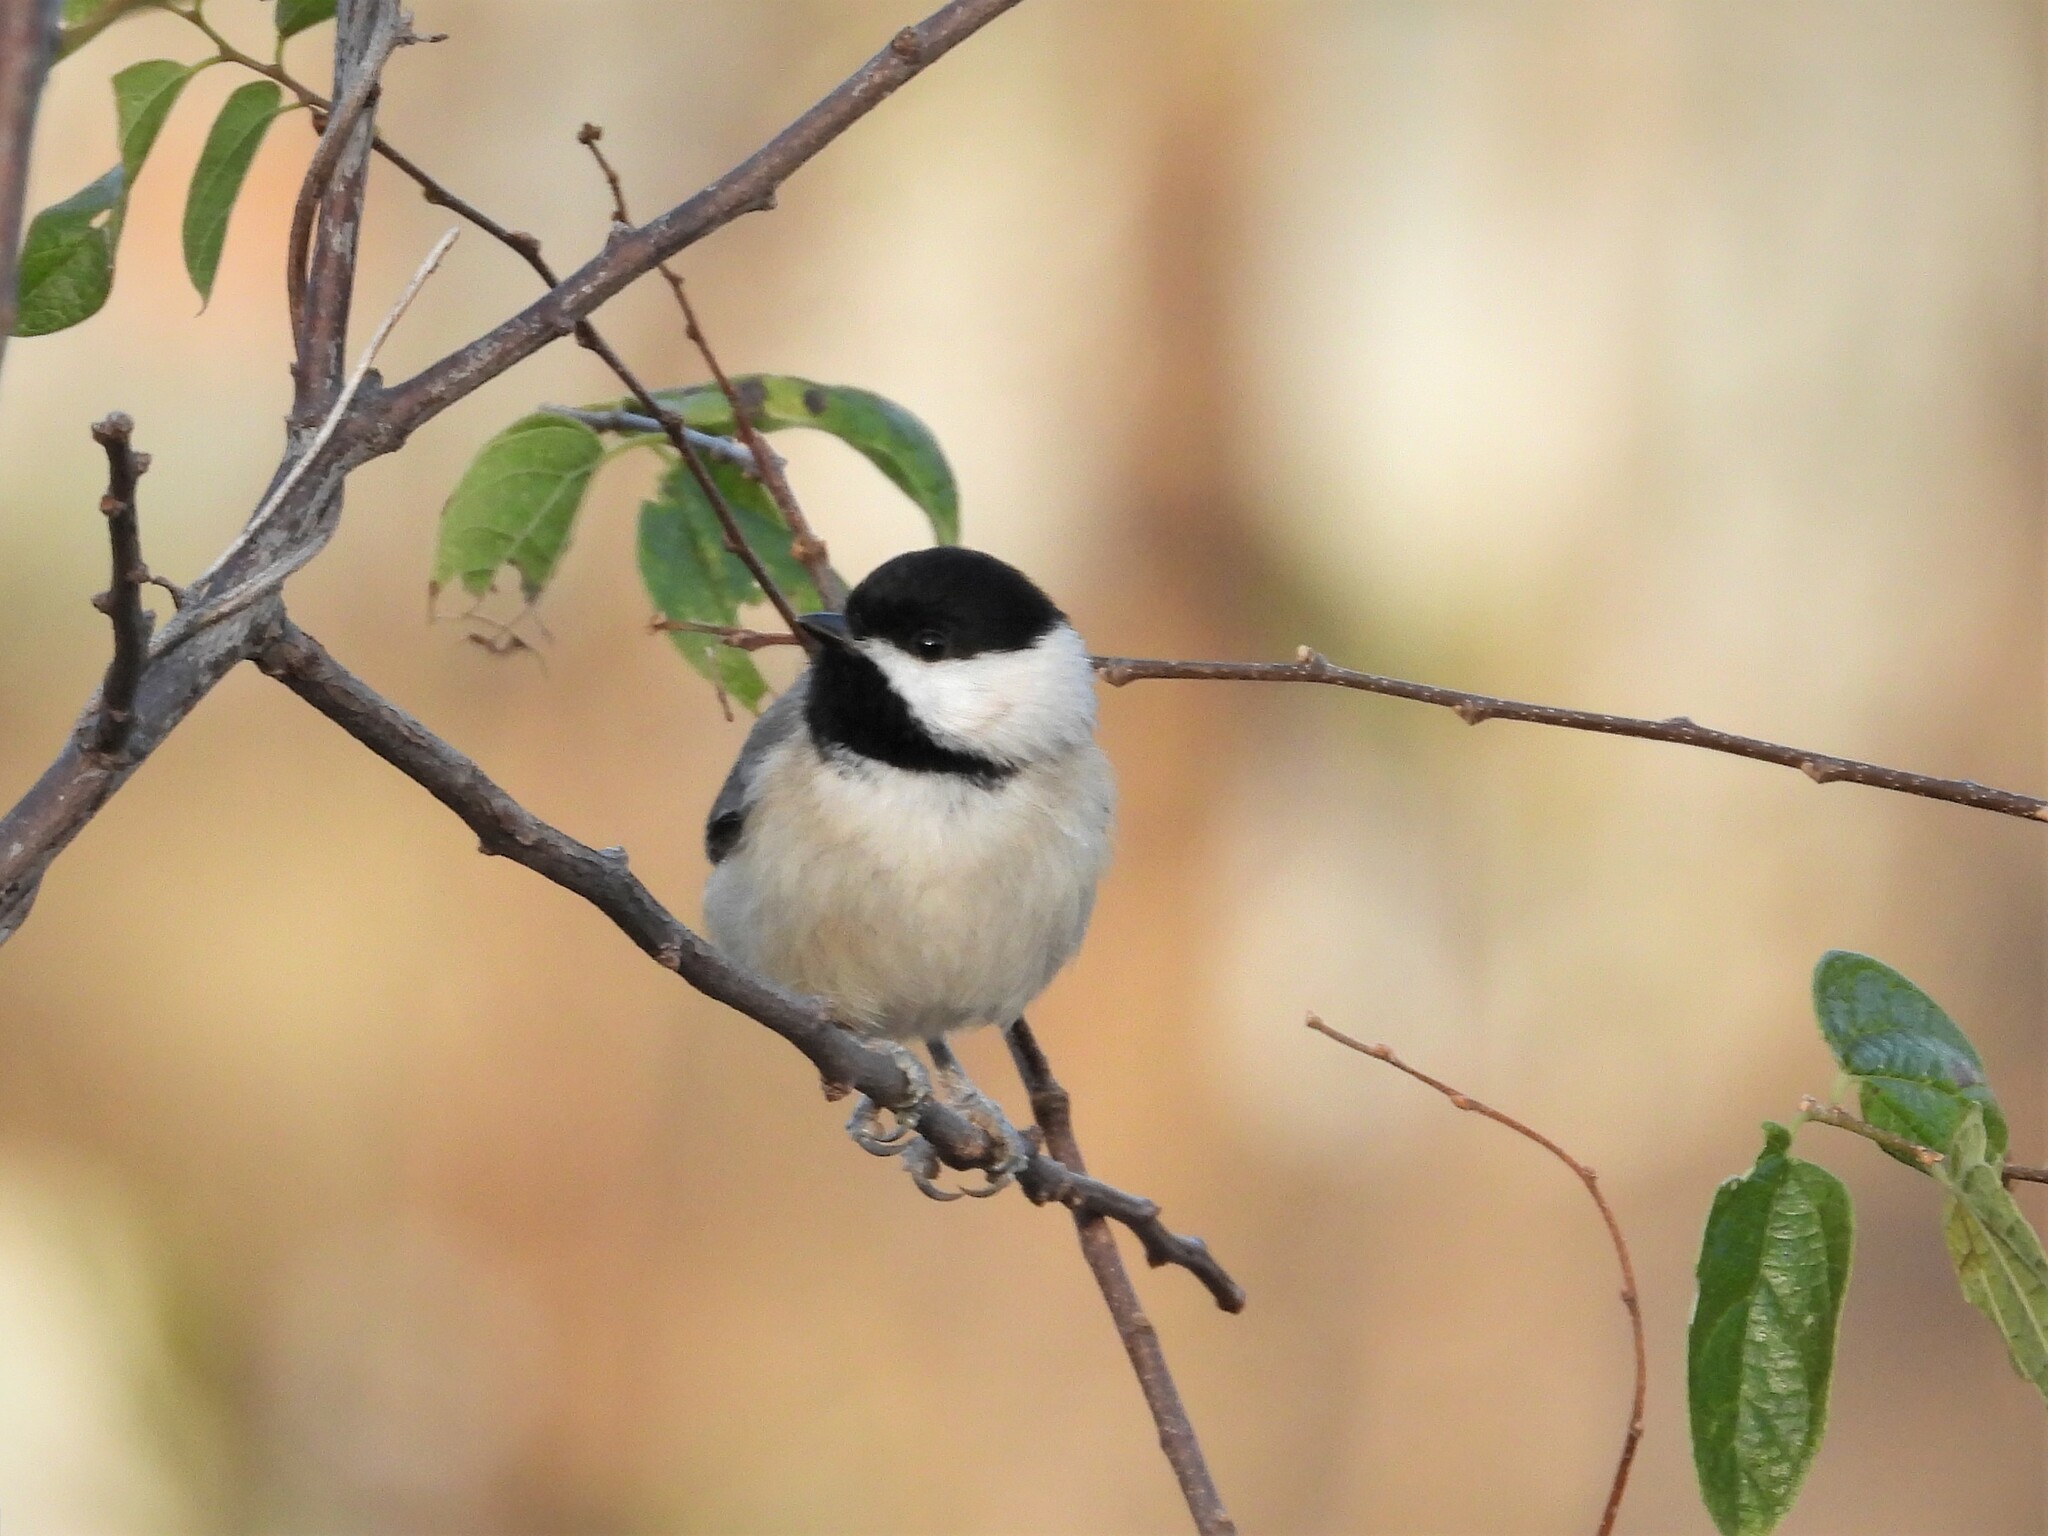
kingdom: Animalia
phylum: Chordata
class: Aves
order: Passeriformes
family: Paridae
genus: Poecile
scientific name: Poecile carolinensis
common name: Carolina chickadee
